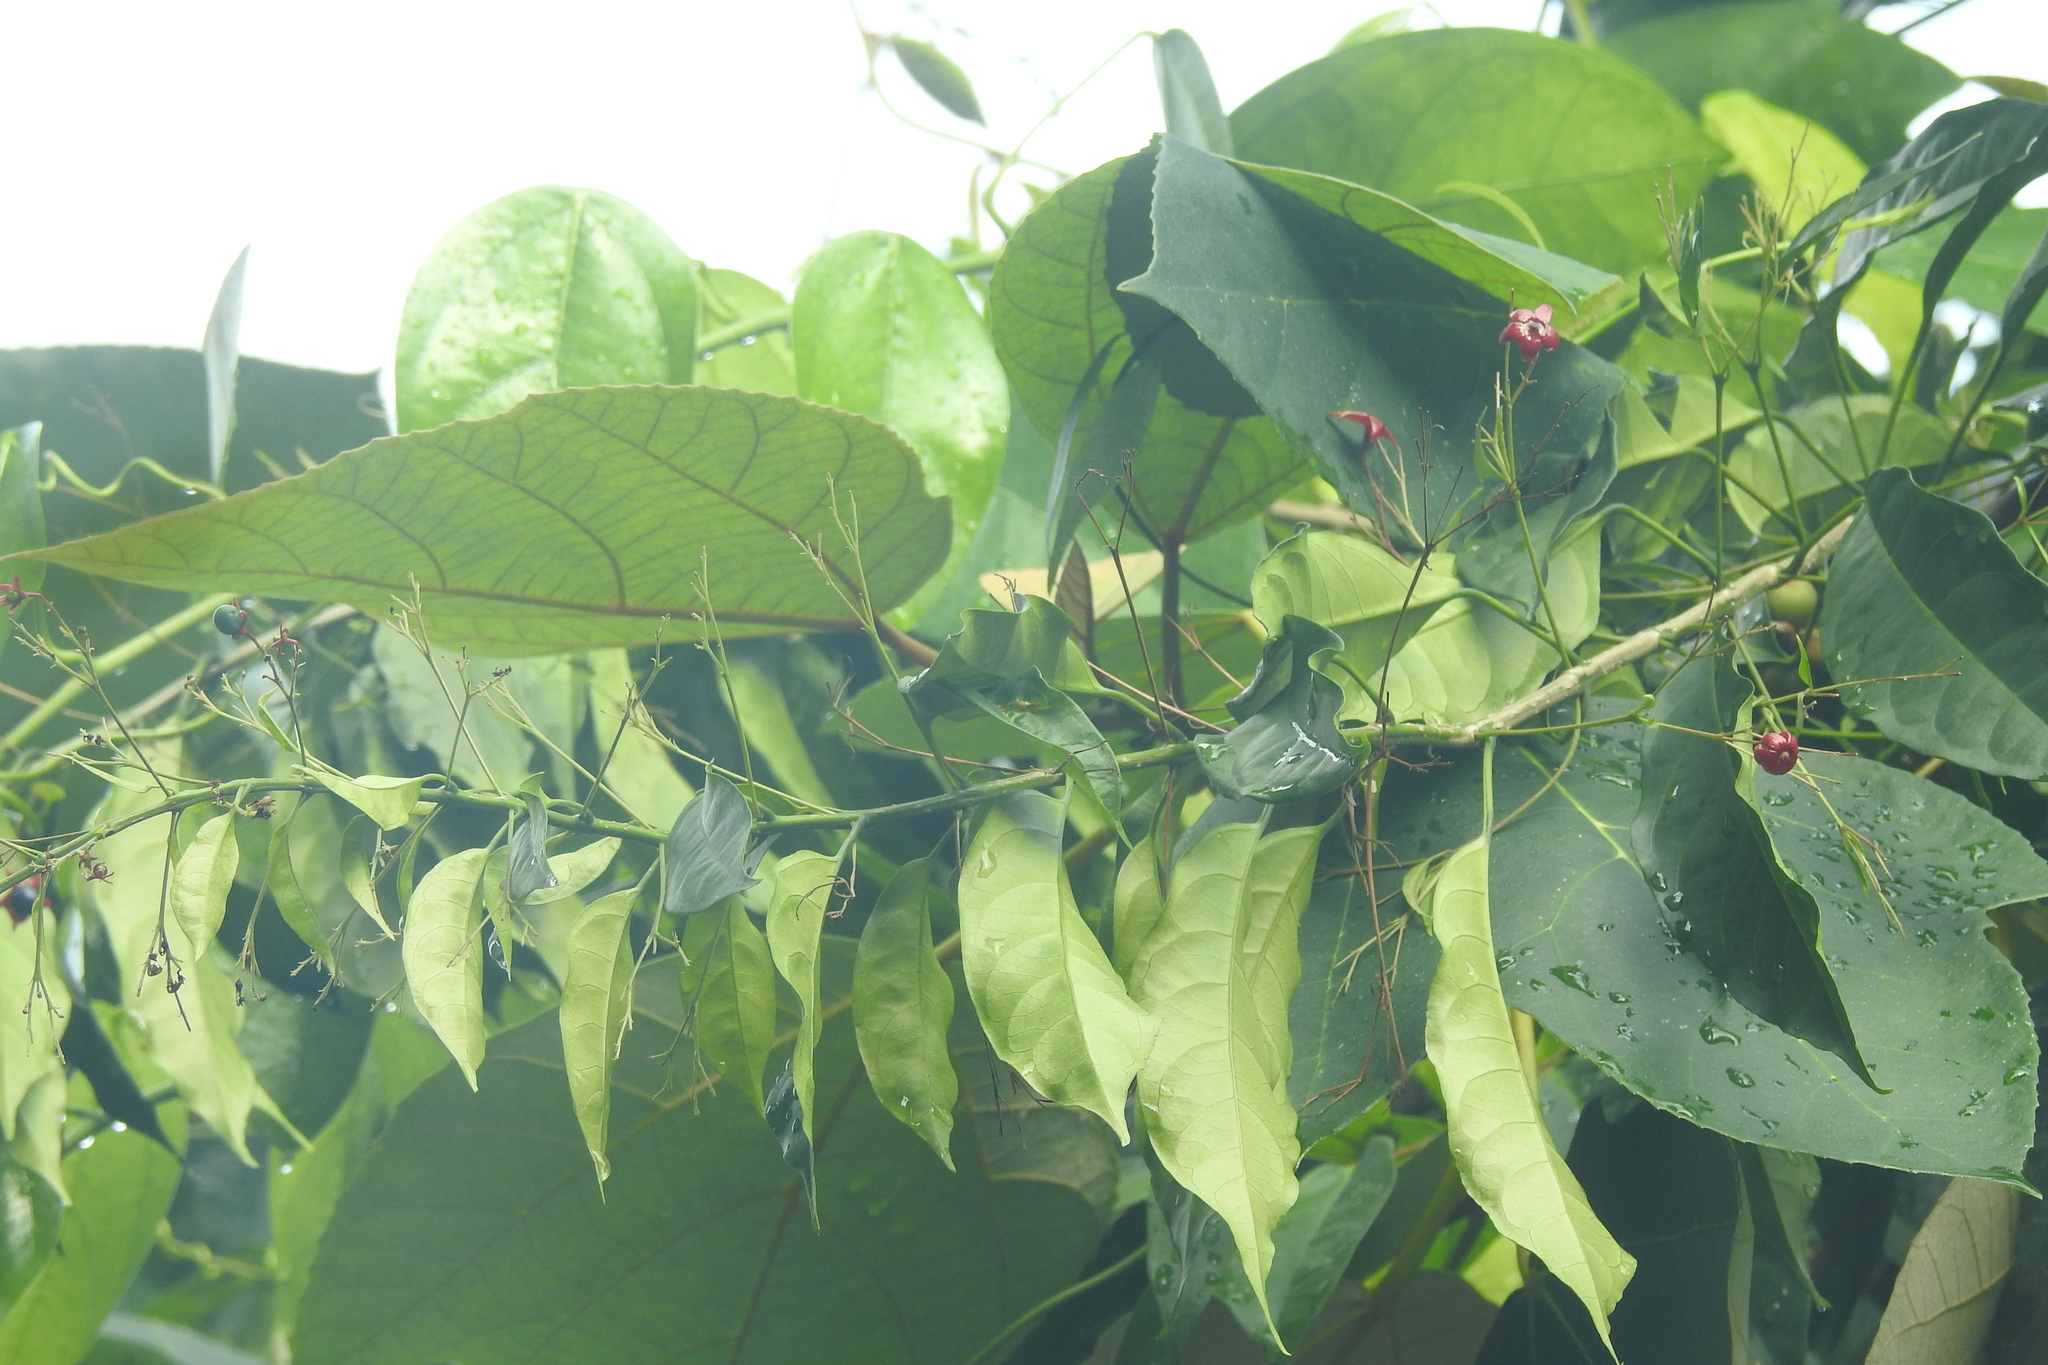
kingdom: Plantae
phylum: Tracheophyta
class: Magnoliopsida
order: Lamiales
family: Lamiaceae
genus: Clerodendrum
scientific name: Clerodendrum disparifolium
